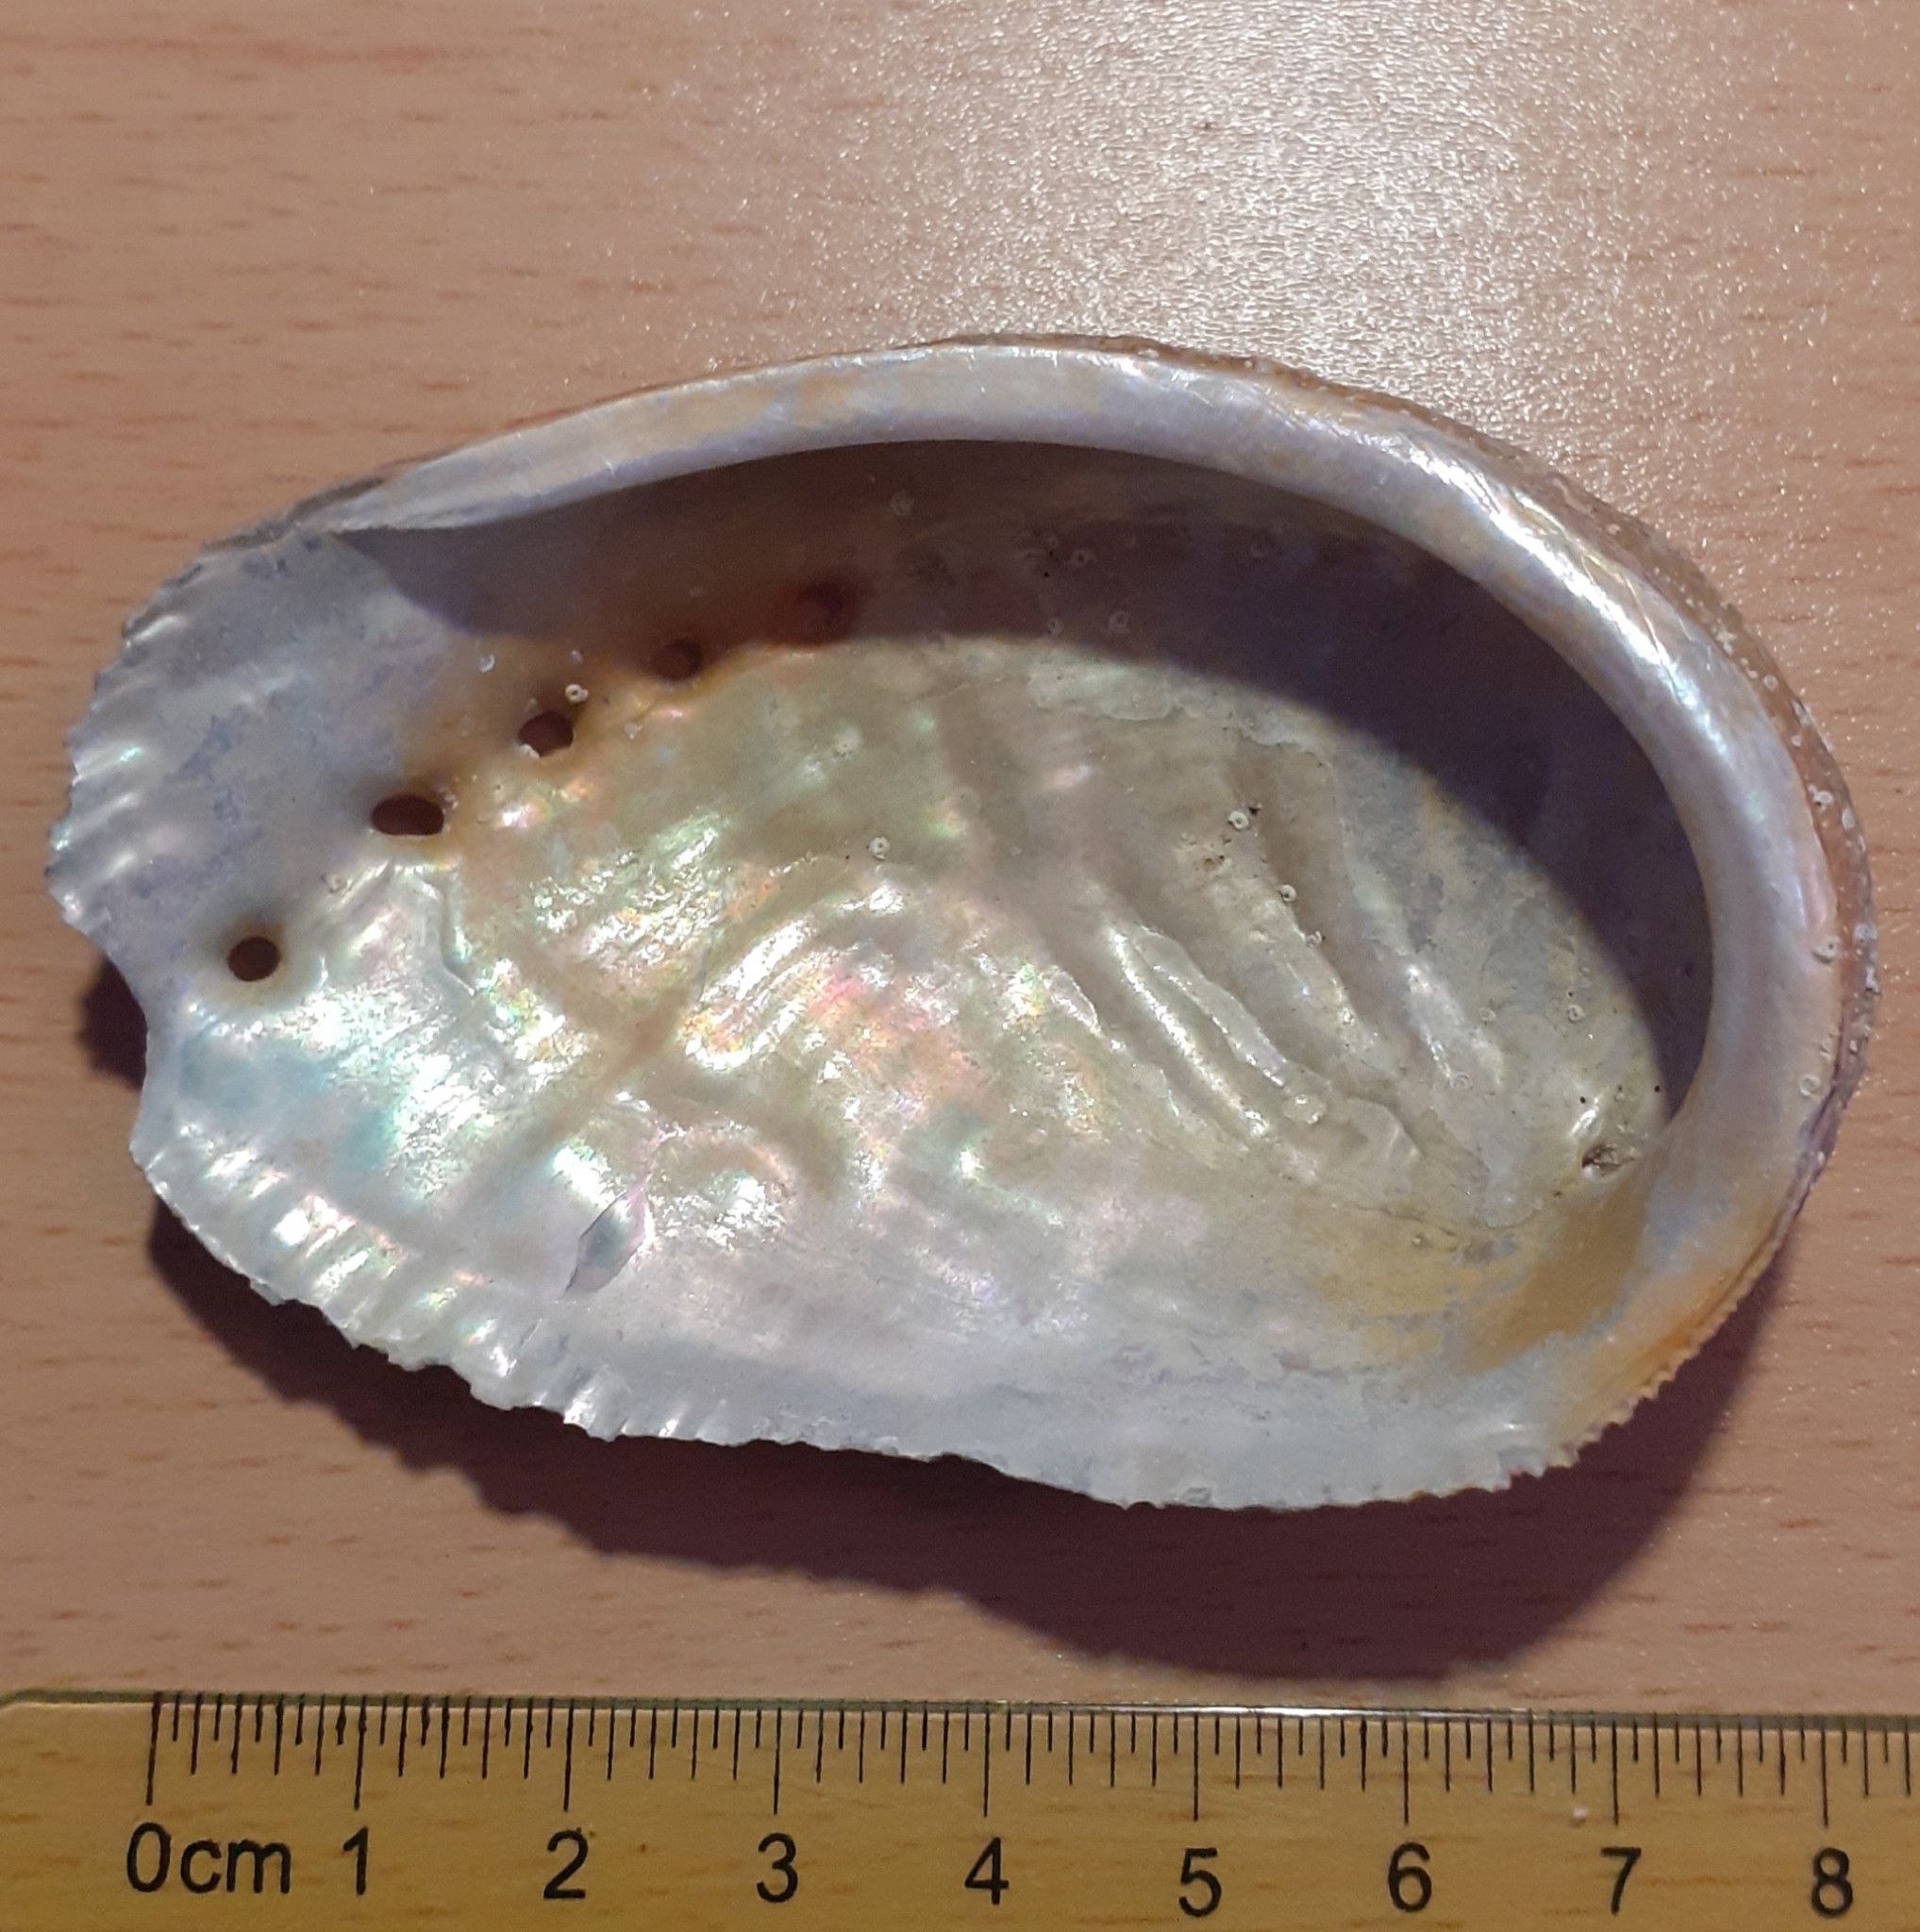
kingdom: Animalia
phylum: Mollusca
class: Gastropoda
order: Lepetellida
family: Haliotidae
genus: Haliotis
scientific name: Haliotis tuberculata
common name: Green ormer
